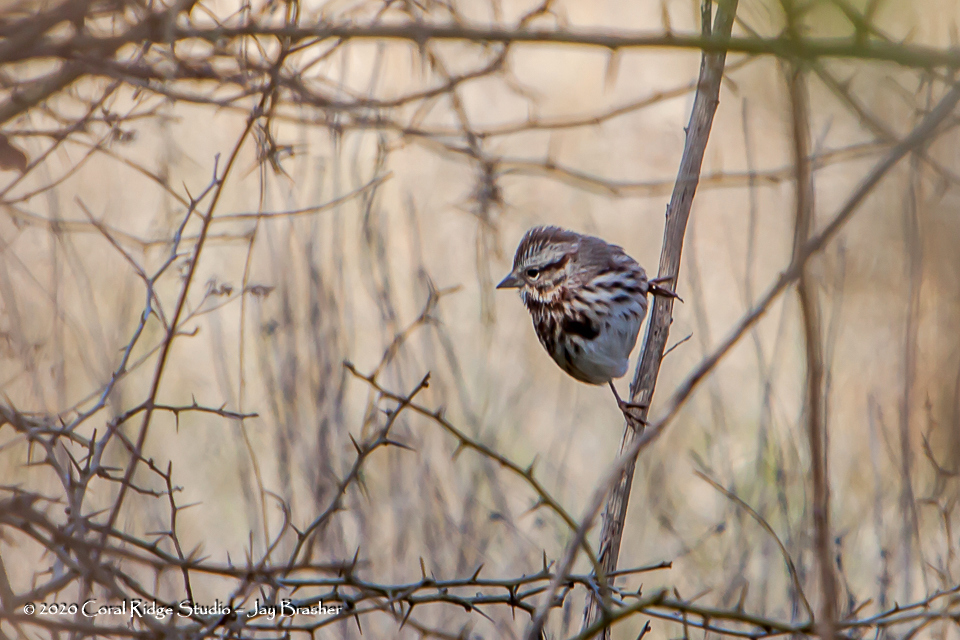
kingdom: Animalia
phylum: Chordata
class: Aves
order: Passeriformes
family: Passerellidae
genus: Melospiza
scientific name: Melospiza melodia
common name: Song sparrow
